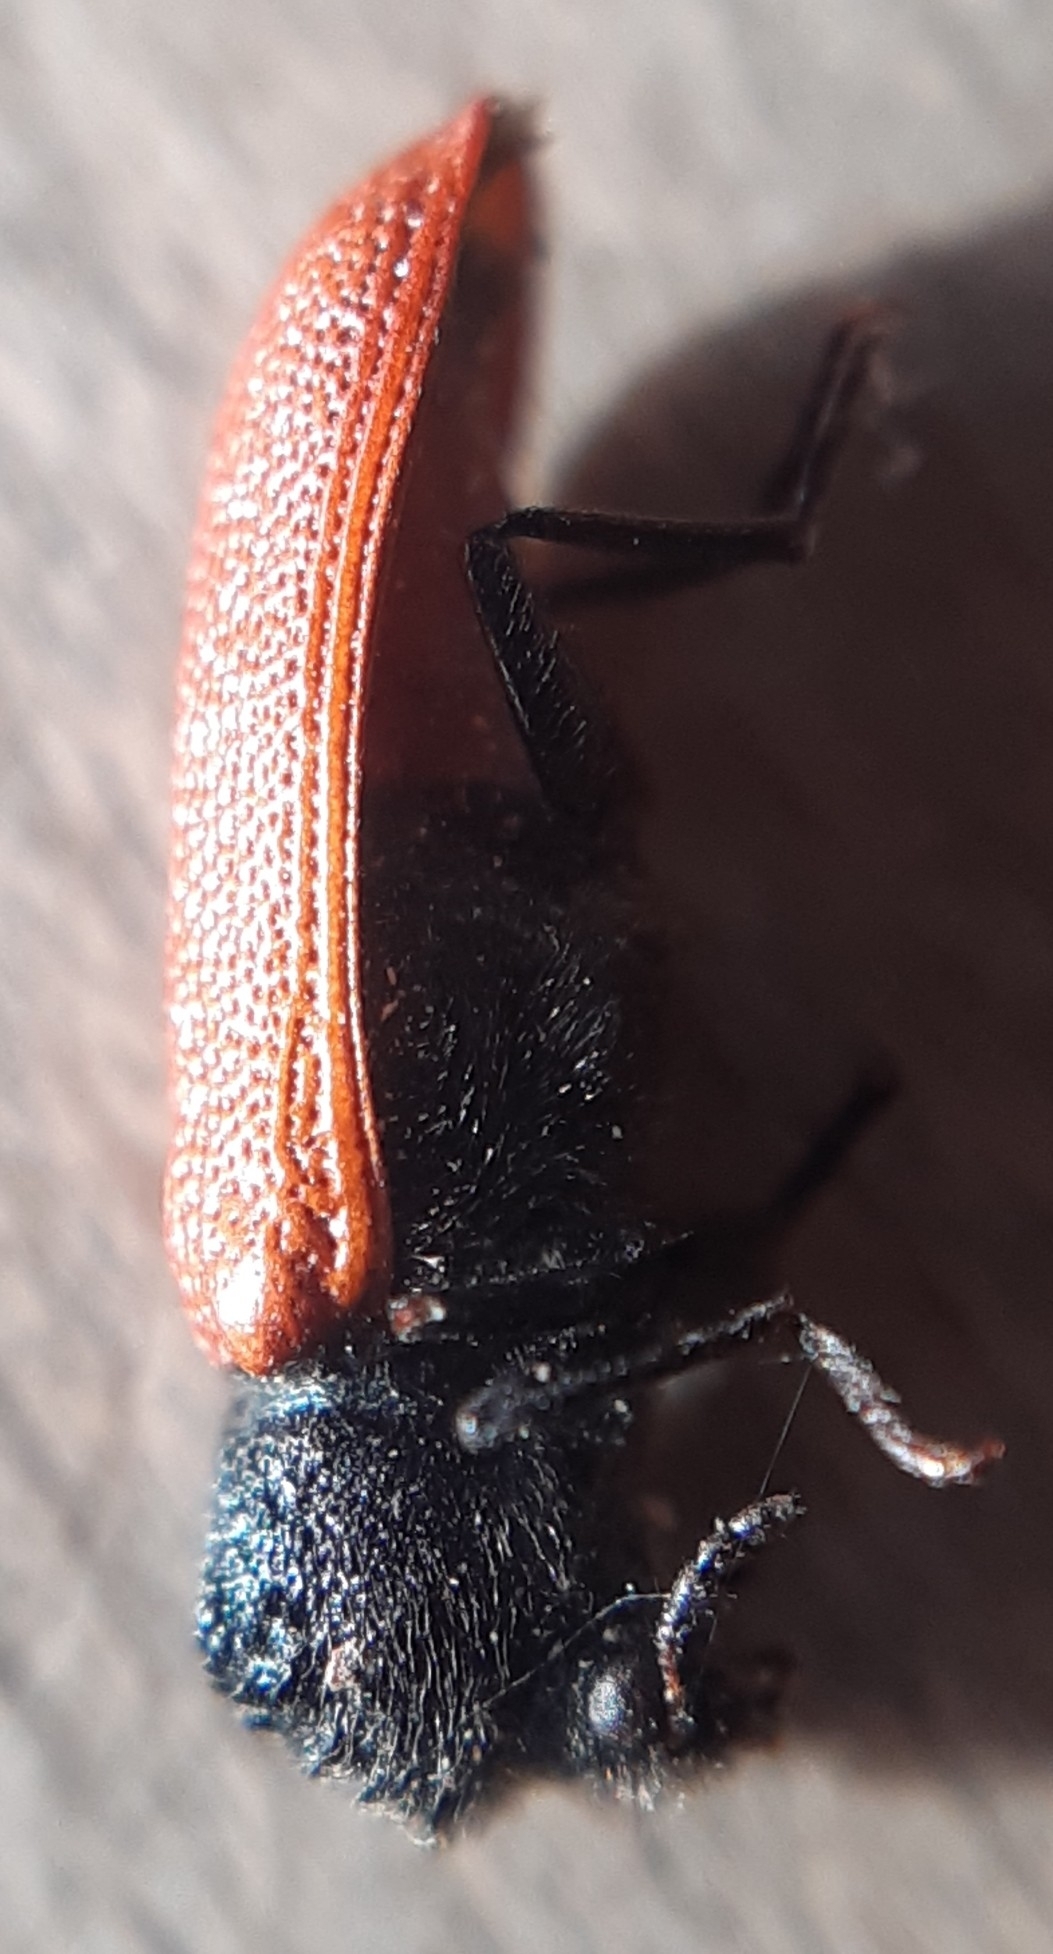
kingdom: Animalia
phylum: Arthropoda
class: Insecta
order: Coleoptera
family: Bostrichidae
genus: Bostrichus
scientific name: Bostrichus capucinus
